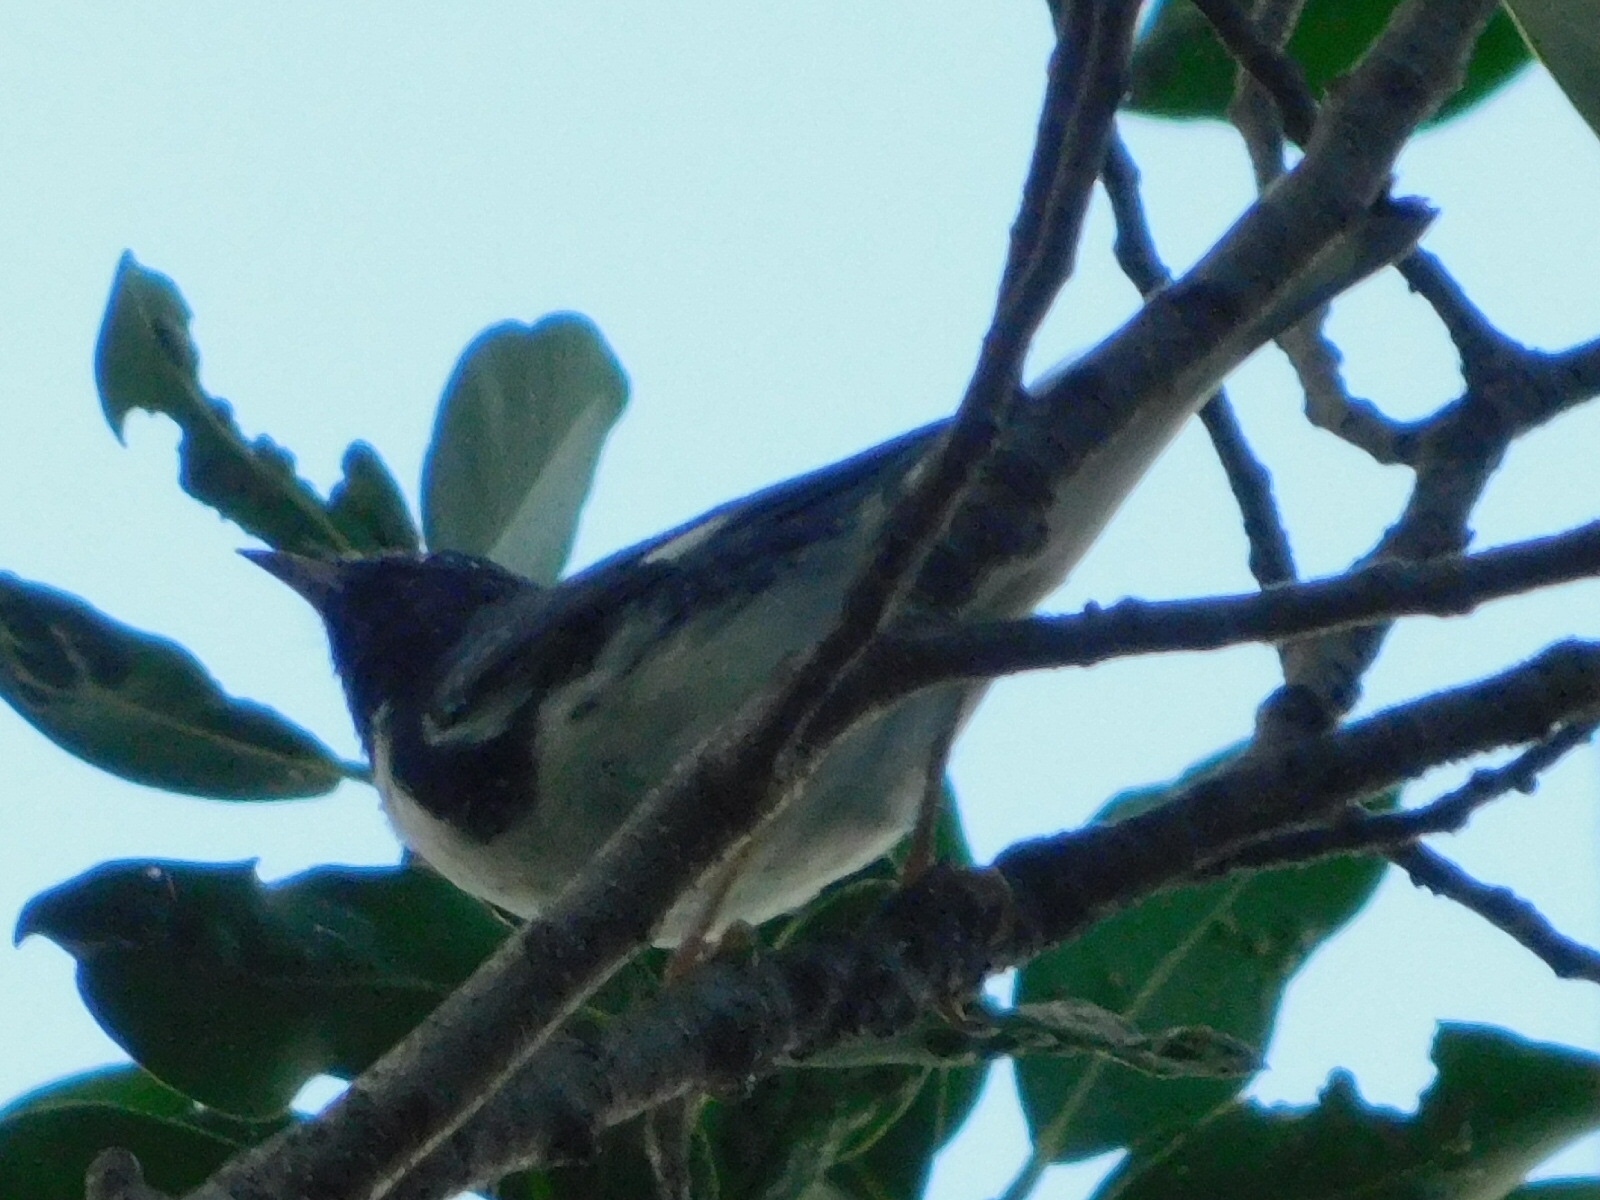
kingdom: Animalia
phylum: Chordata
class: Aves
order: Passeriformes
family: Parulidae
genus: Setophaga
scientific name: Setophaga caerulescens
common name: Black-throated blue warbler
